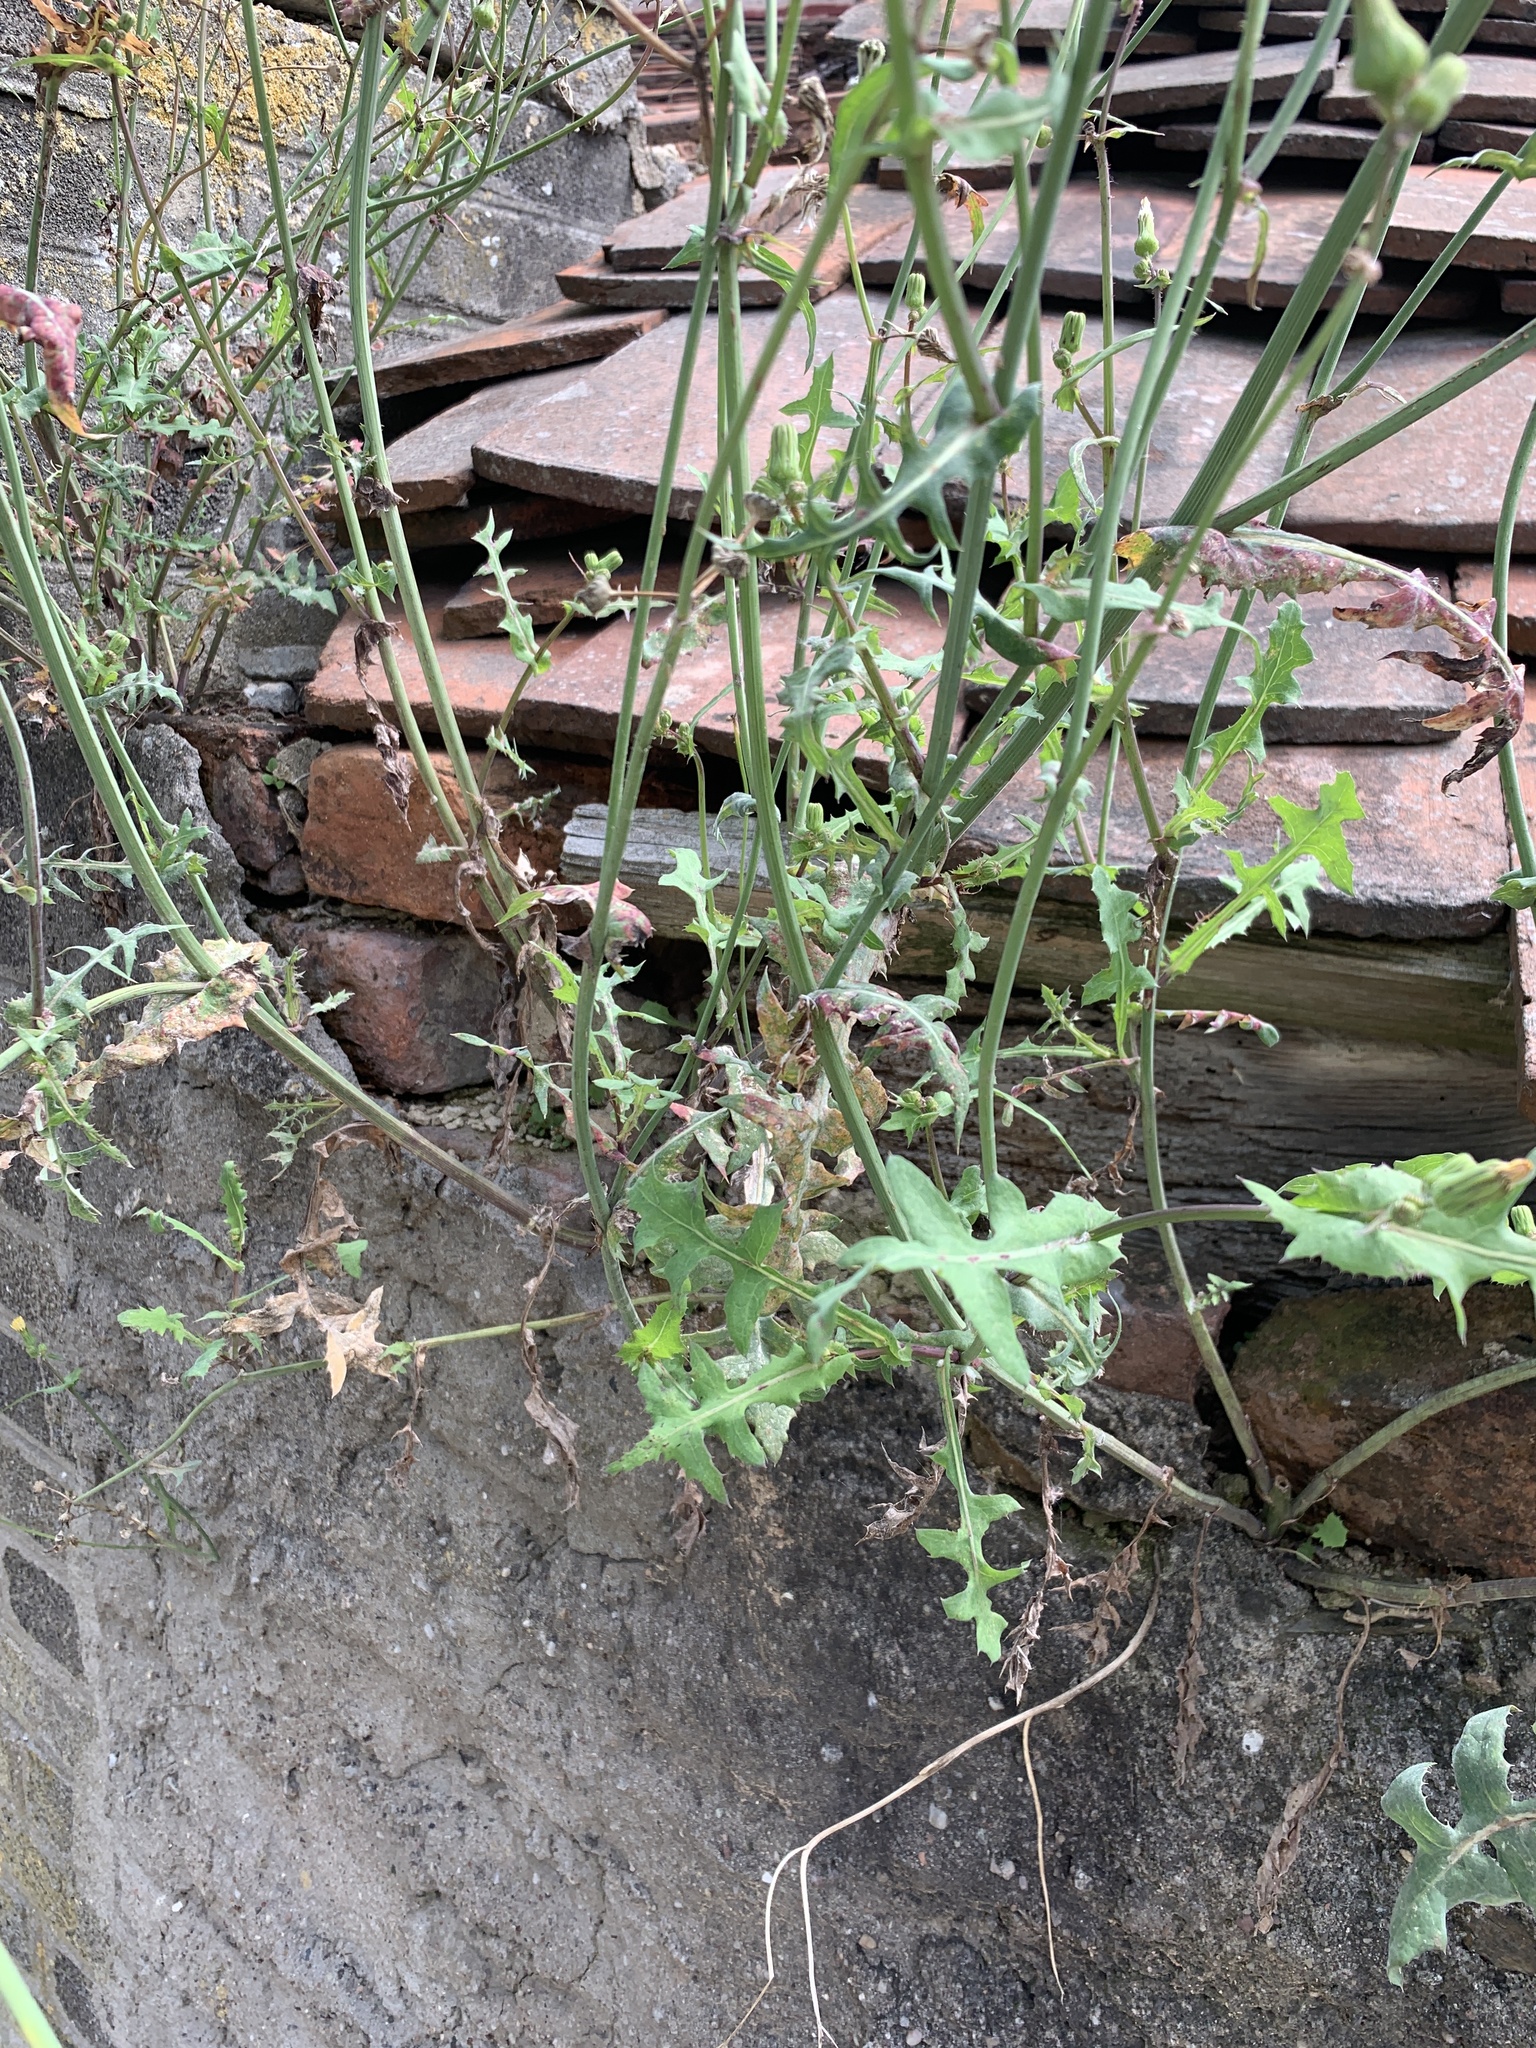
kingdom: Plantae
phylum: Tracheophyta
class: Magnoliopsida
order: Asterales
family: Asteraceae
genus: Sonchus
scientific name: Sonchus oleraceus
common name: Common sowthistle
